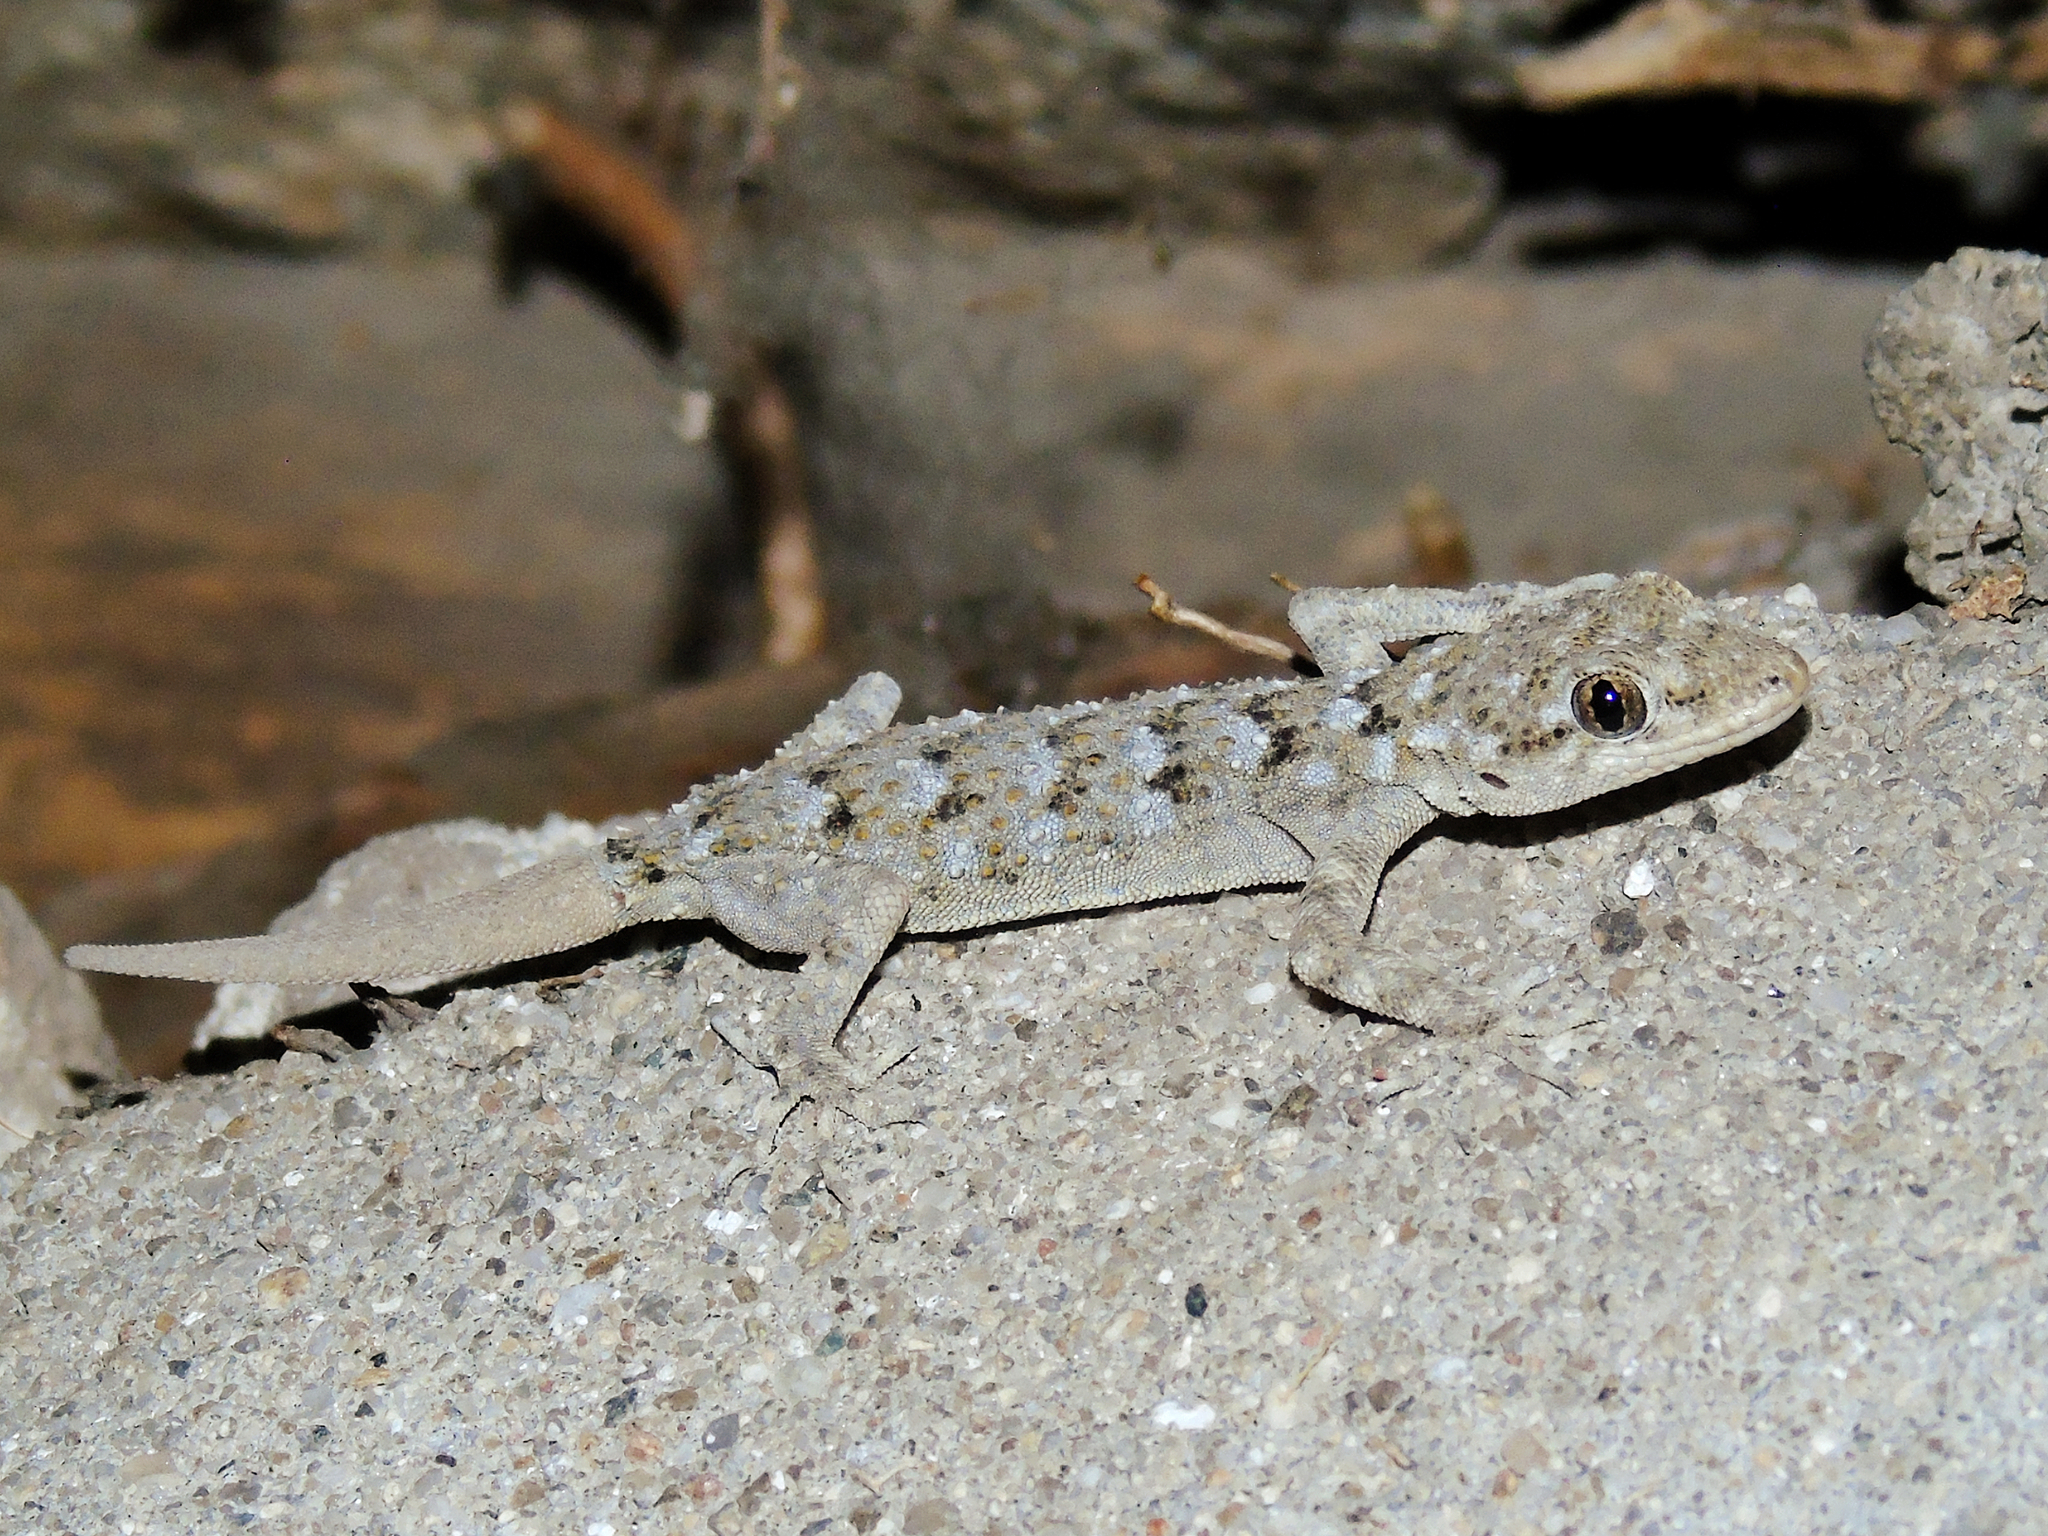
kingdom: Animalia
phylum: Chordata
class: Squamata
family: Gekkonidae
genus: Mediodactylus
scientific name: Mediodactylus kotschyi
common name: Kotschy's gecko
